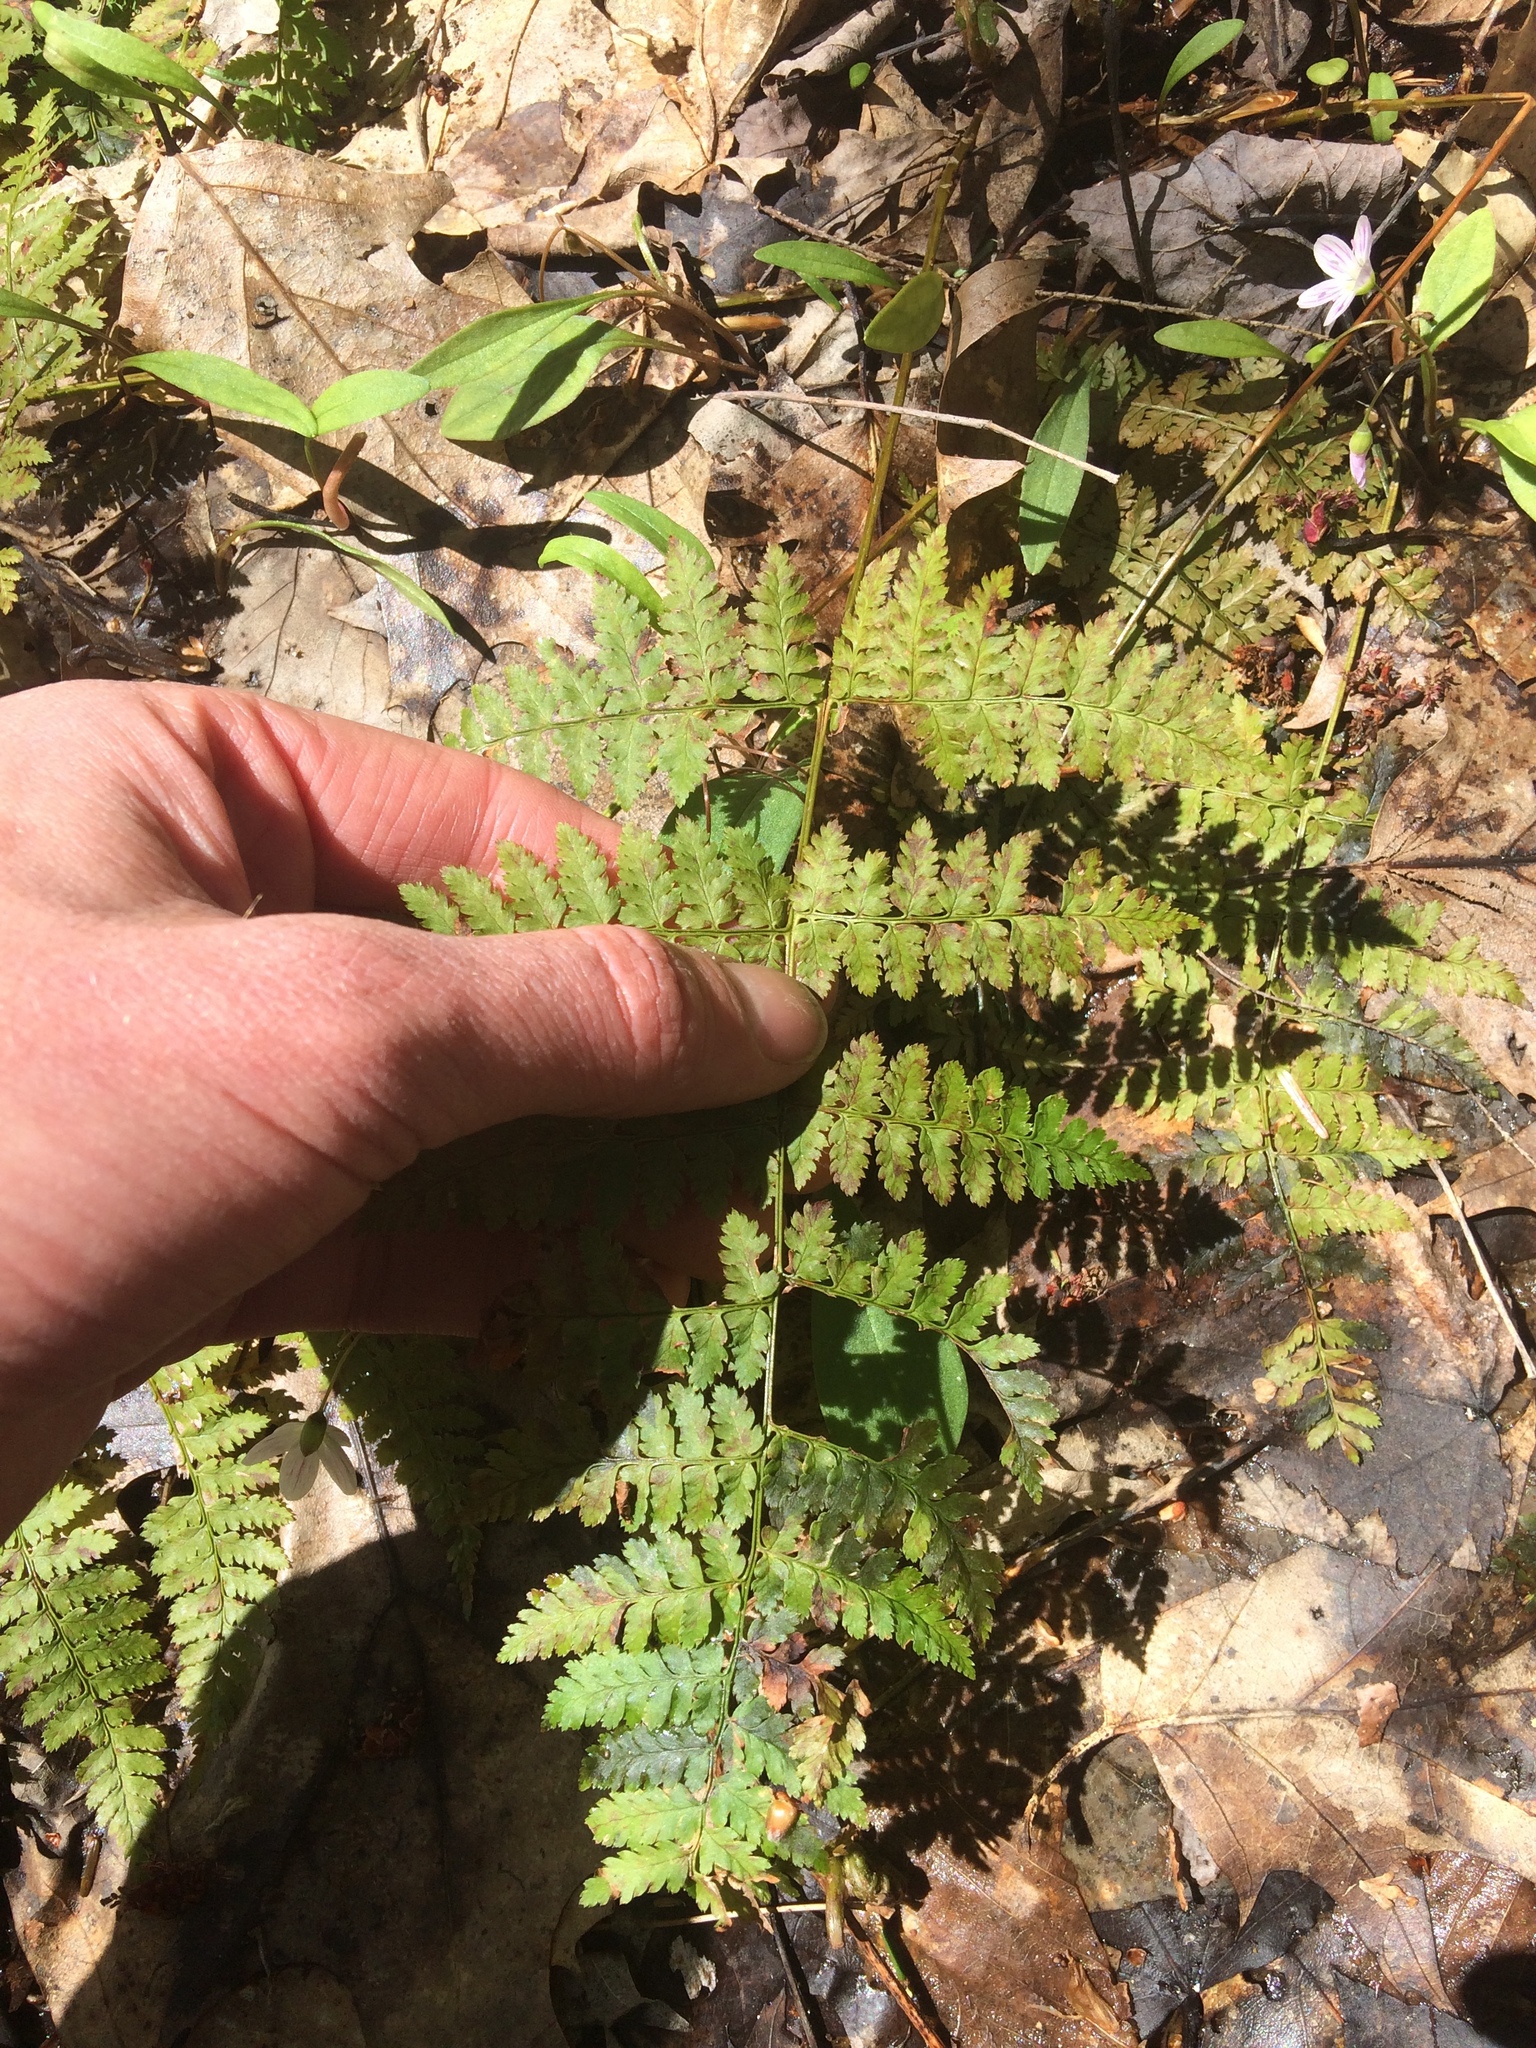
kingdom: Plantae
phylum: Tracheophyta
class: Polypodiopsida
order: Polypodiales
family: Dryopteridaceae
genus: Dryopteris
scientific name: Dryopteris intermedia
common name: Evergreen wood fern
